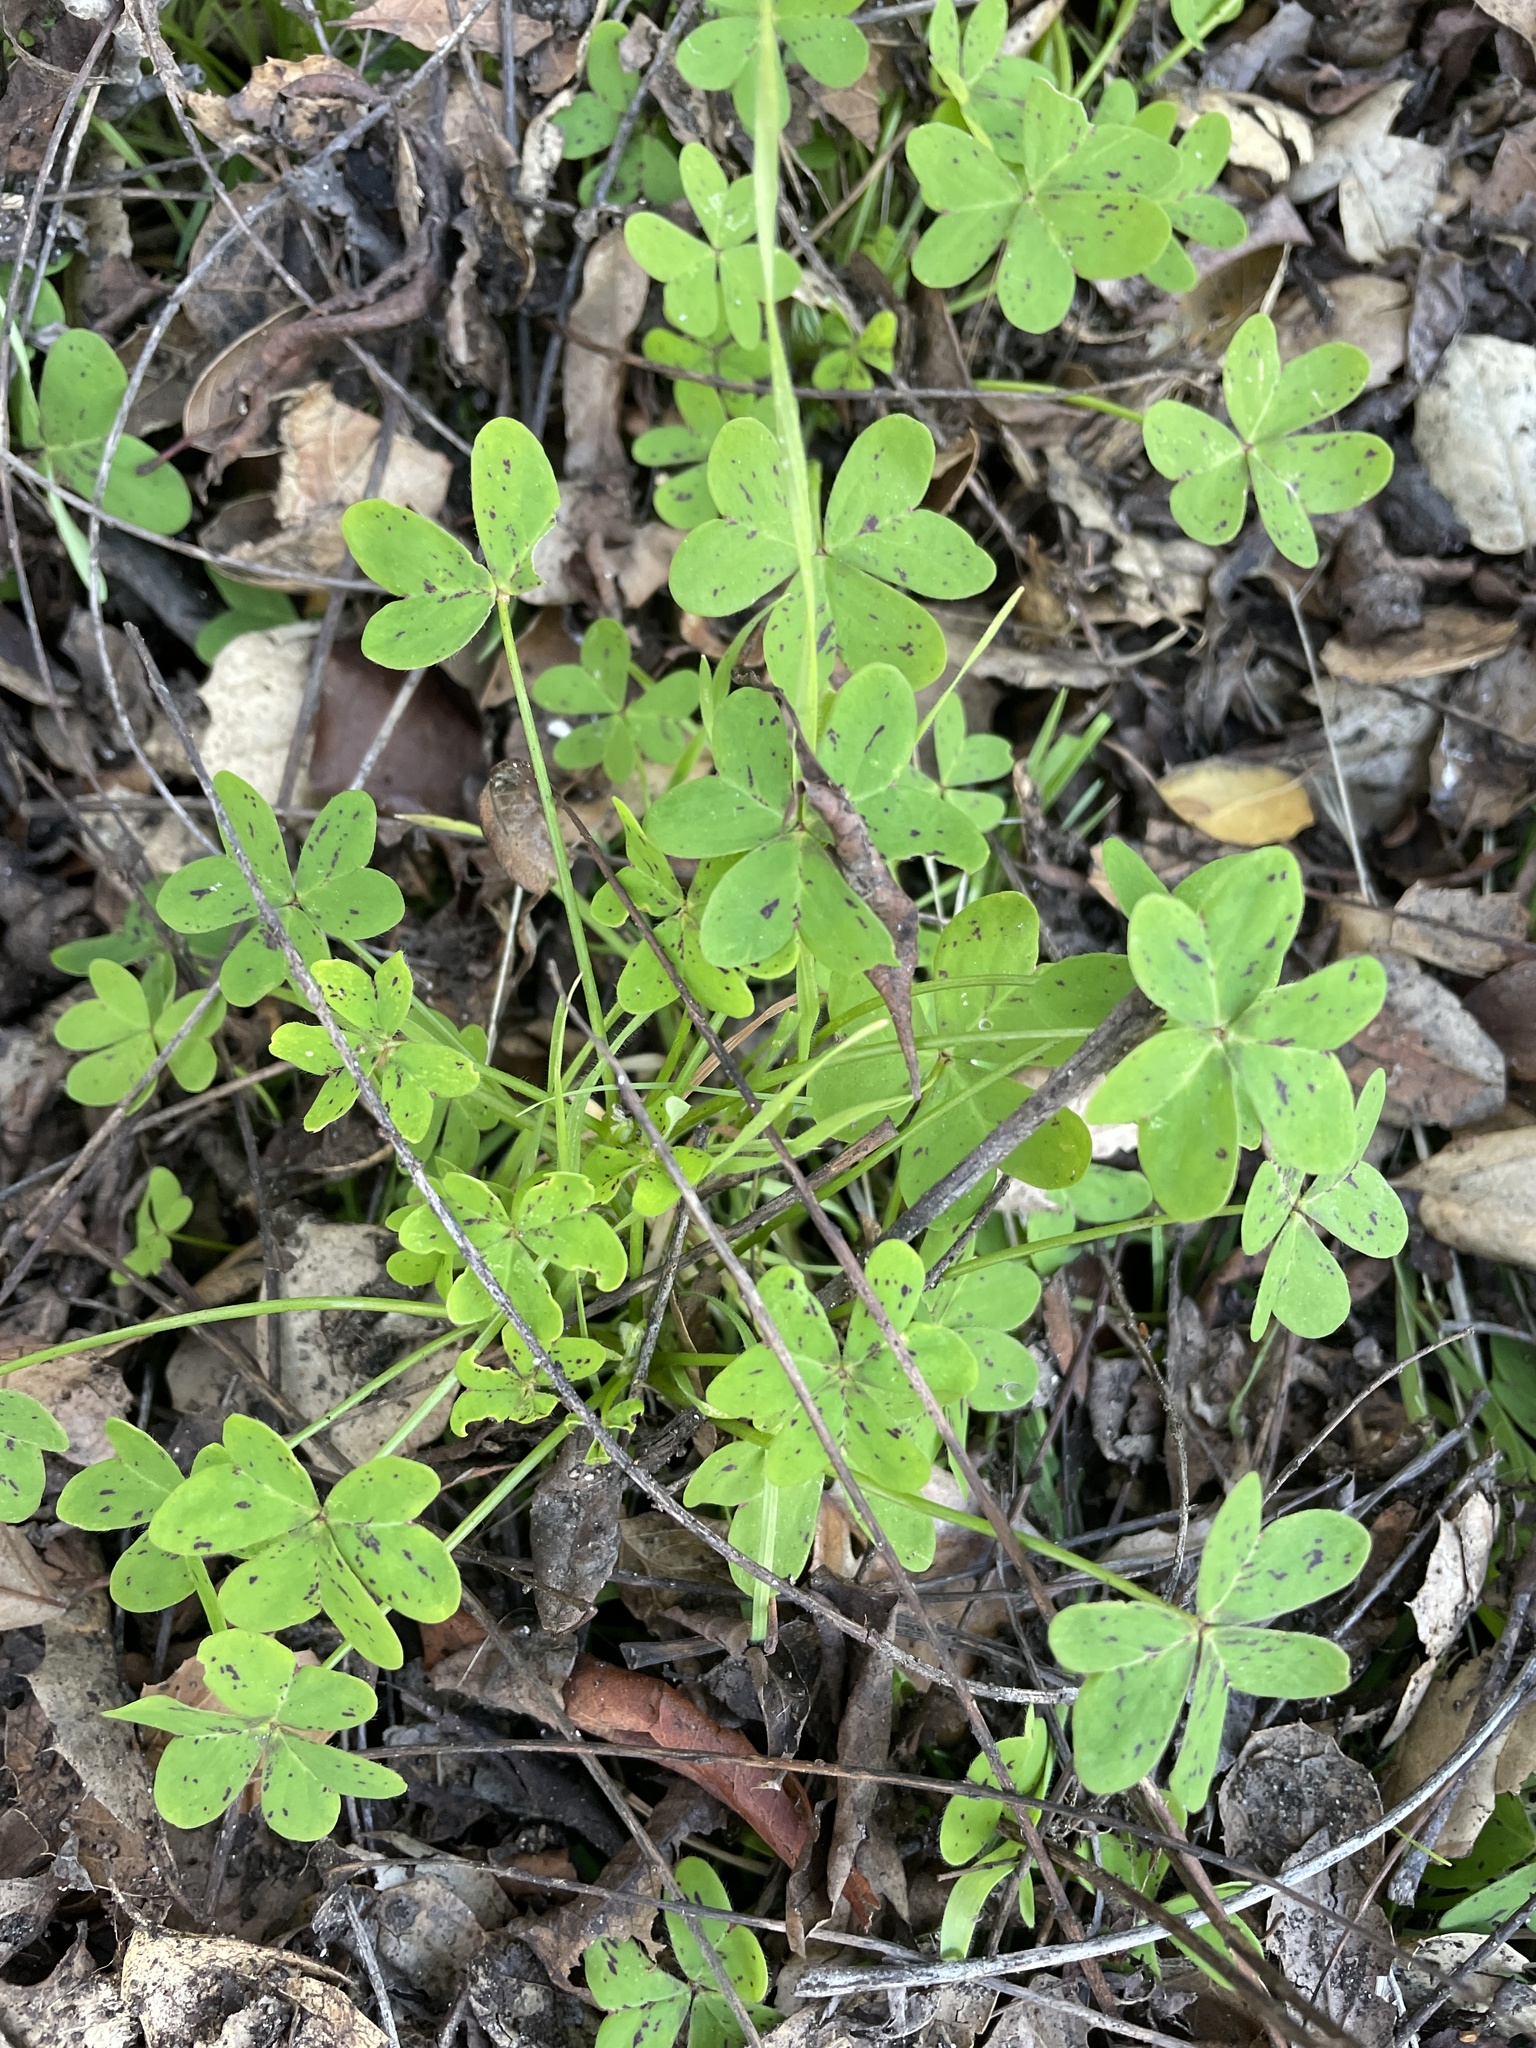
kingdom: Plantae
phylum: Tracheophyta
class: Magnoliopsida
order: Oxalidales
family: Oxalidaceae
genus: Oxalis
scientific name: Oxalis pes-caprae
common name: Bermuda-buttercup
